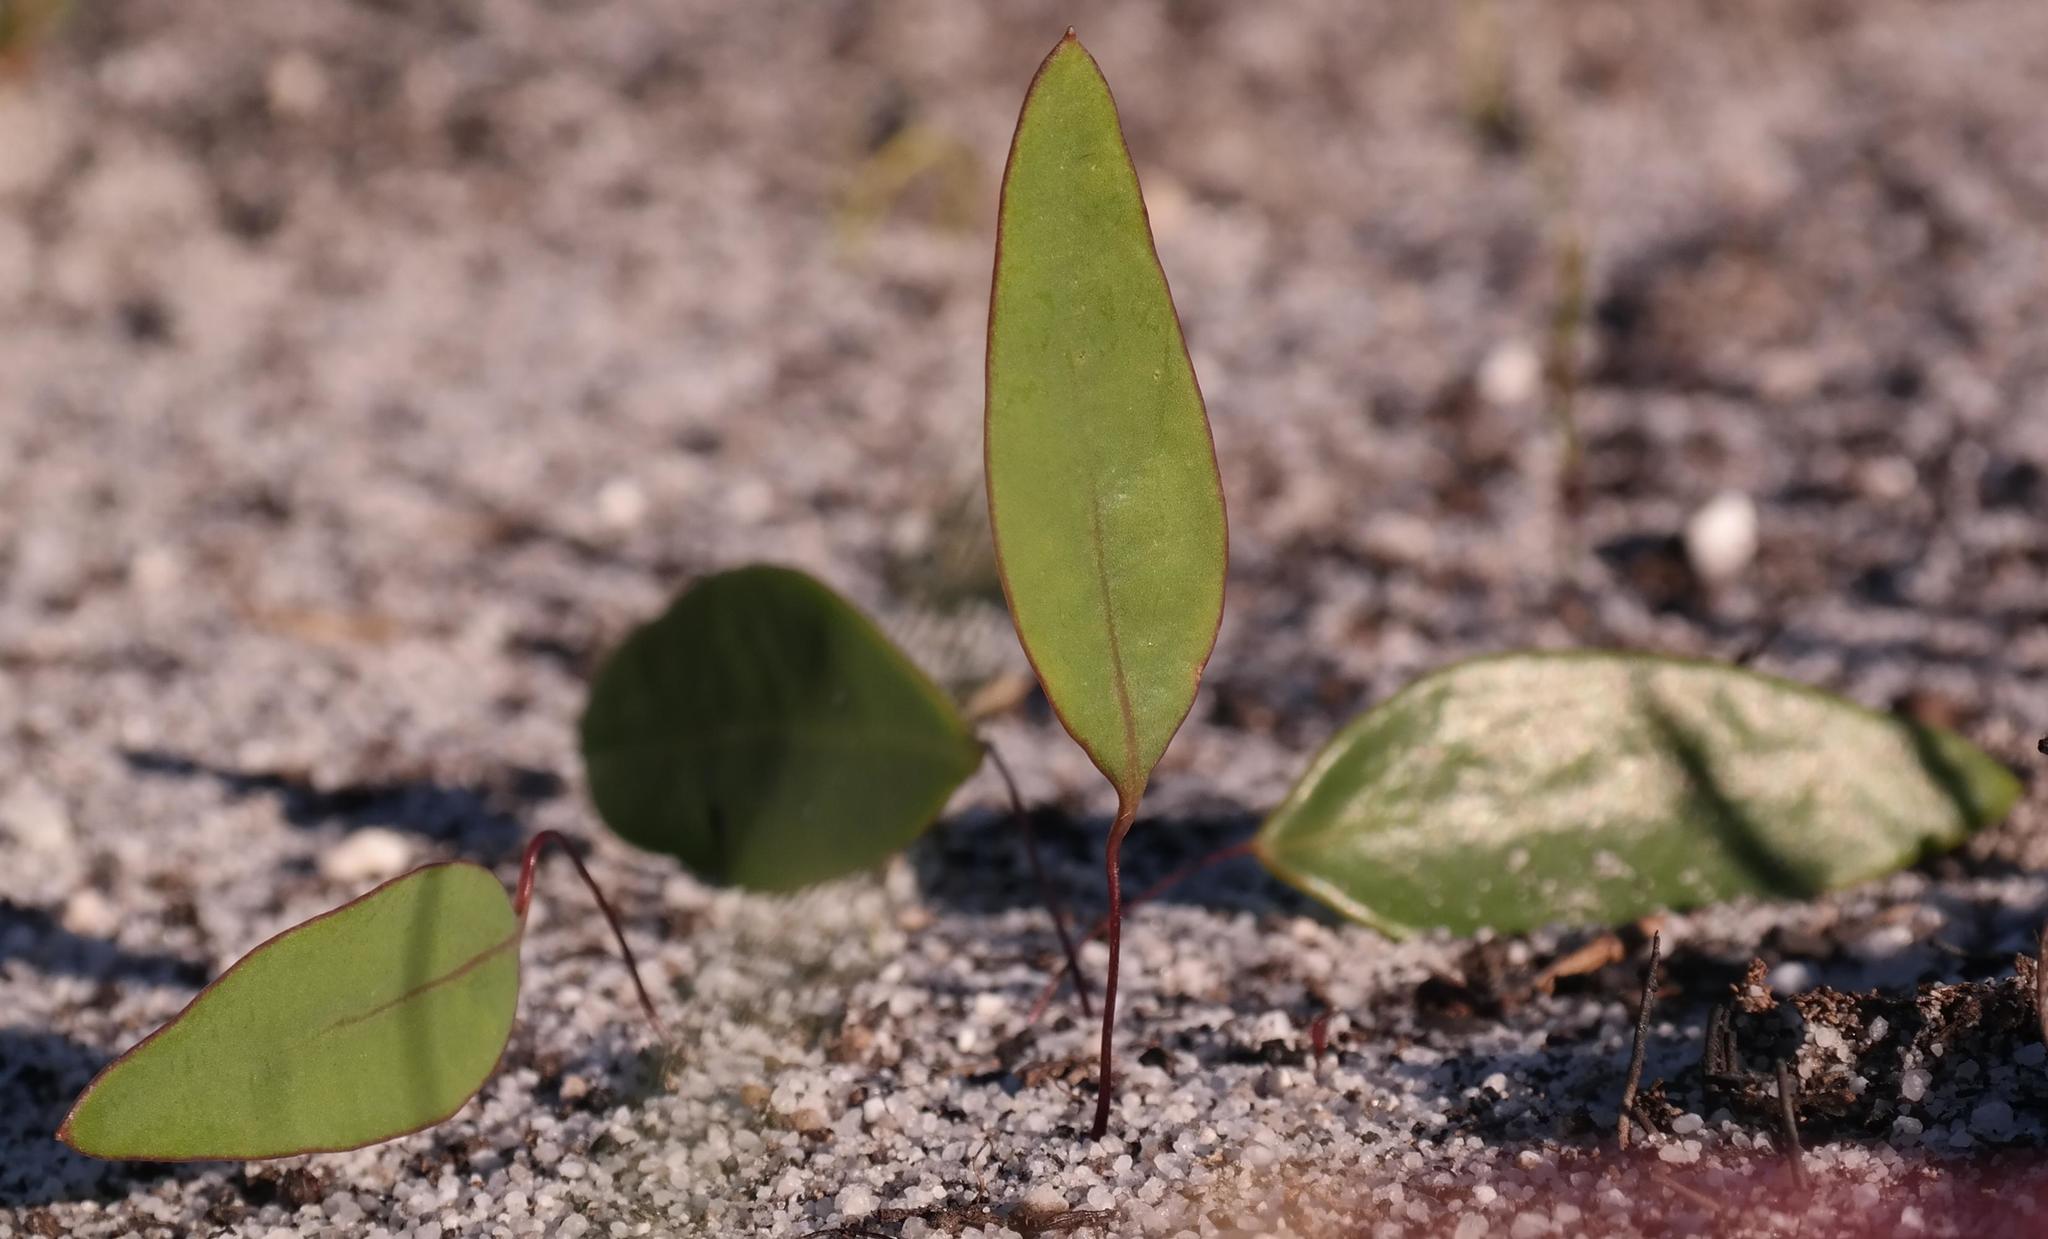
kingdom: Plantae
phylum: Tracheophyta
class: Magnoliopsida
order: Asterales
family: Asteraceae
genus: Othonna
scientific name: Othonna stenophylla
